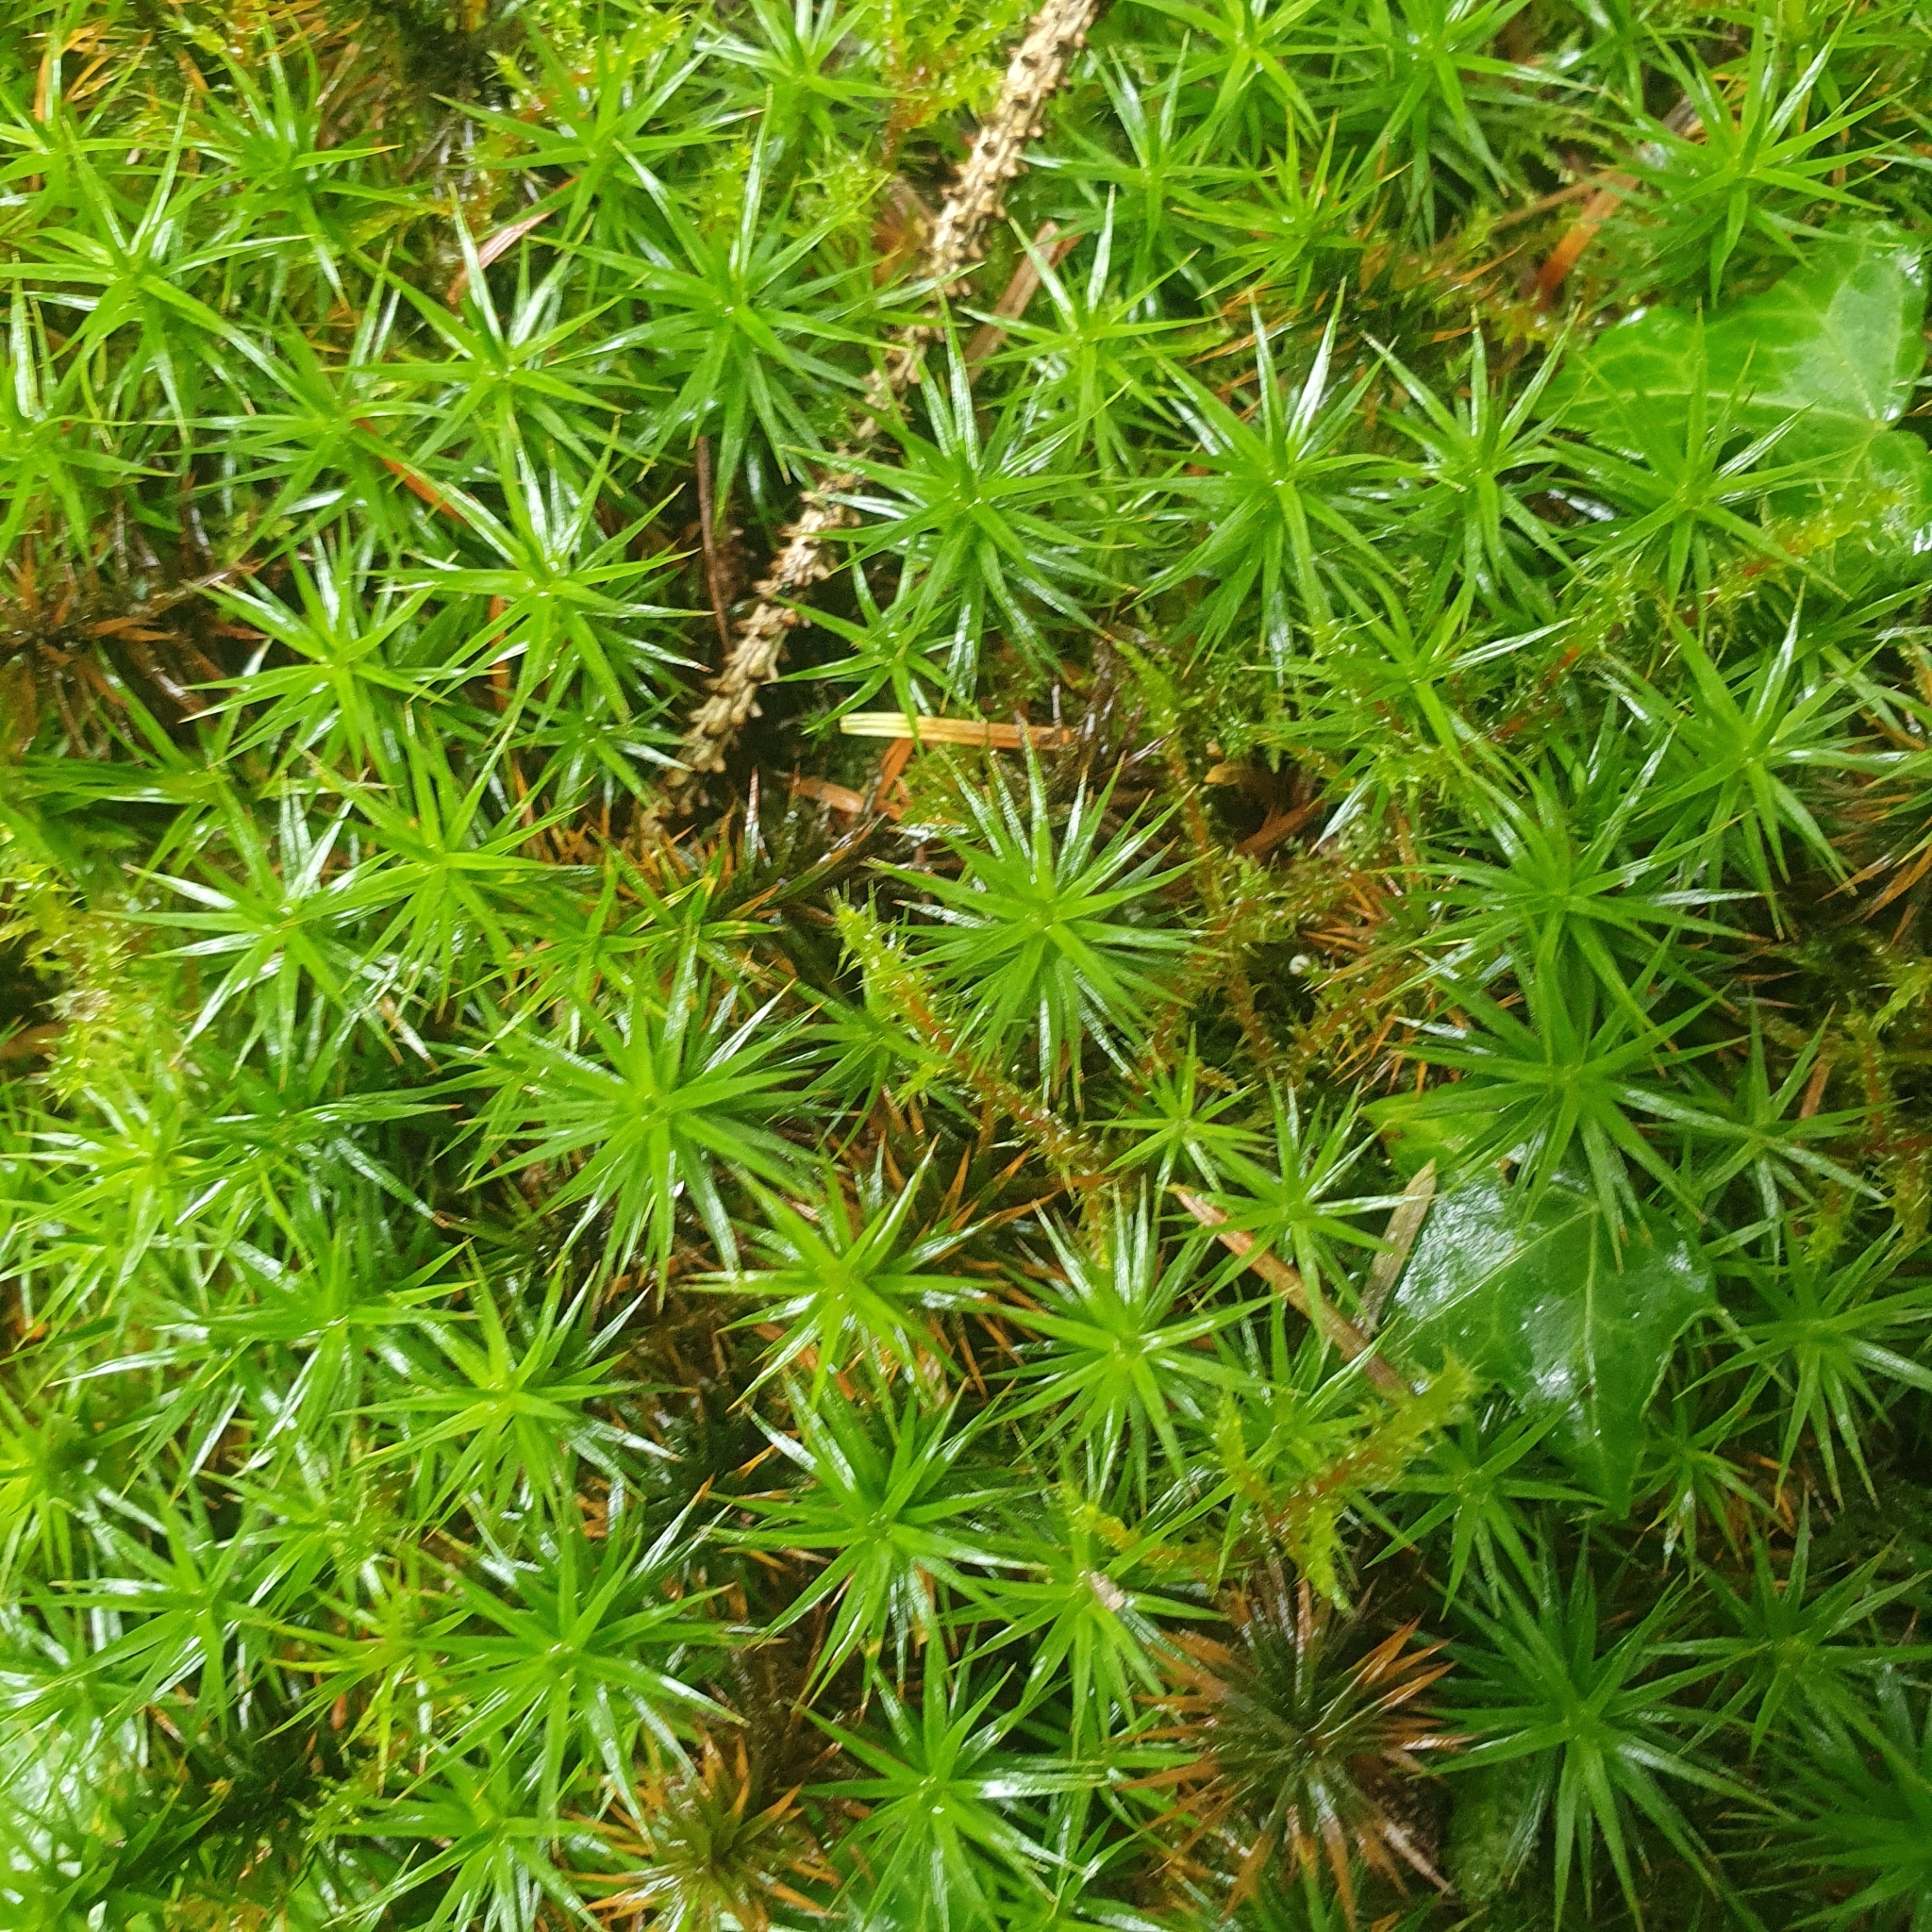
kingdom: Plantae
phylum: Bryophyta
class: Polytrichopsida
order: Polytrichales
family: Polytrichaceae
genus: Polytrichum
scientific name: Polytrichum formosum
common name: Bank haircap moss
